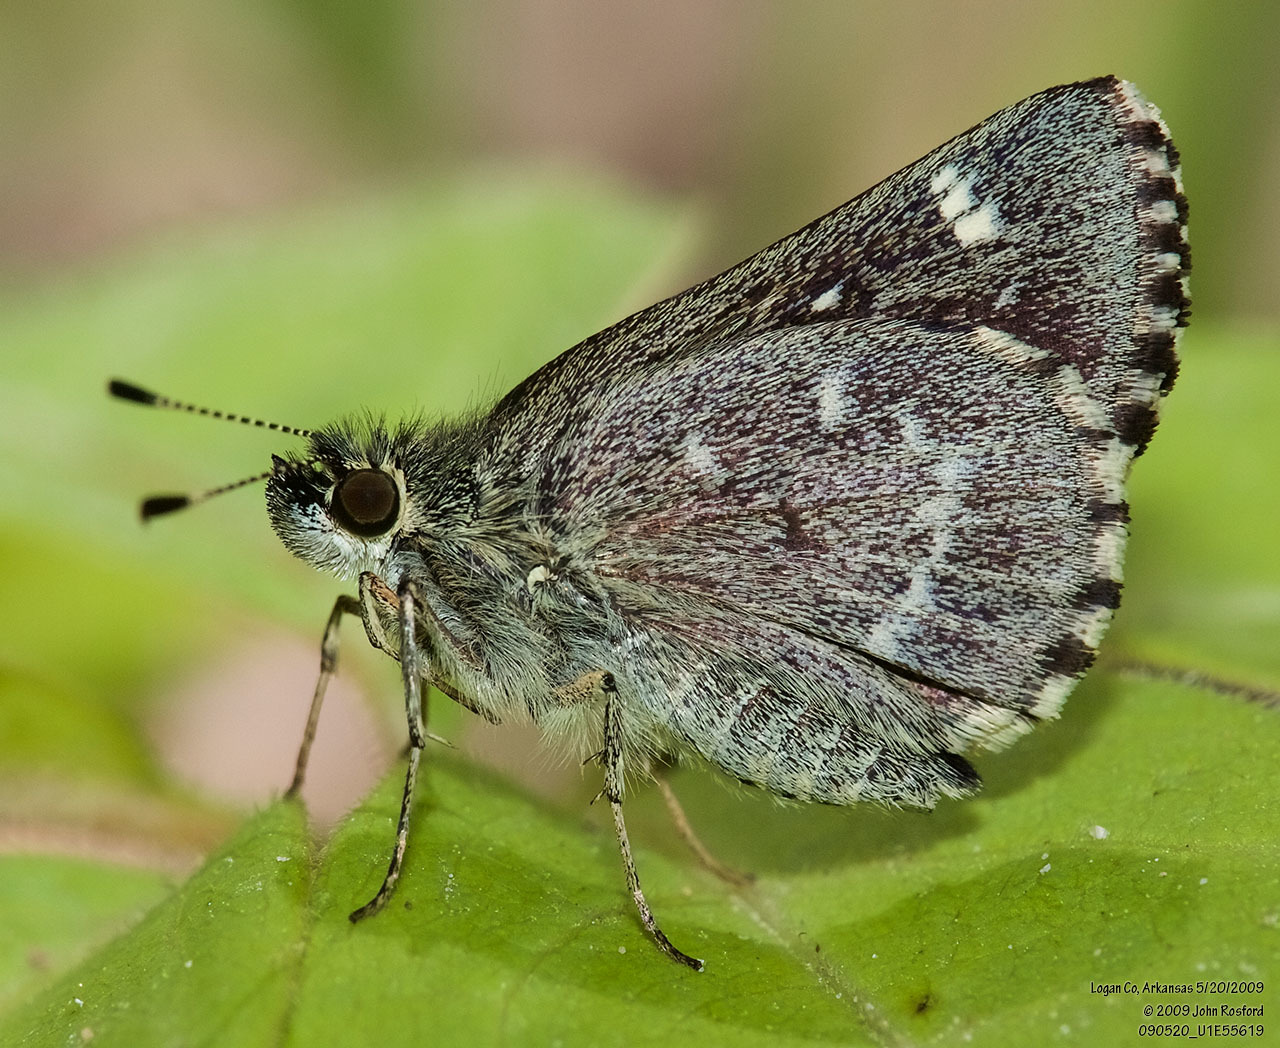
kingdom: Animalia
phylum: Arthropoda
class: Insecta
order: Lepidoptera
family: Hesperiidae
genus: Mastor
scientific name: Mastor hegon
